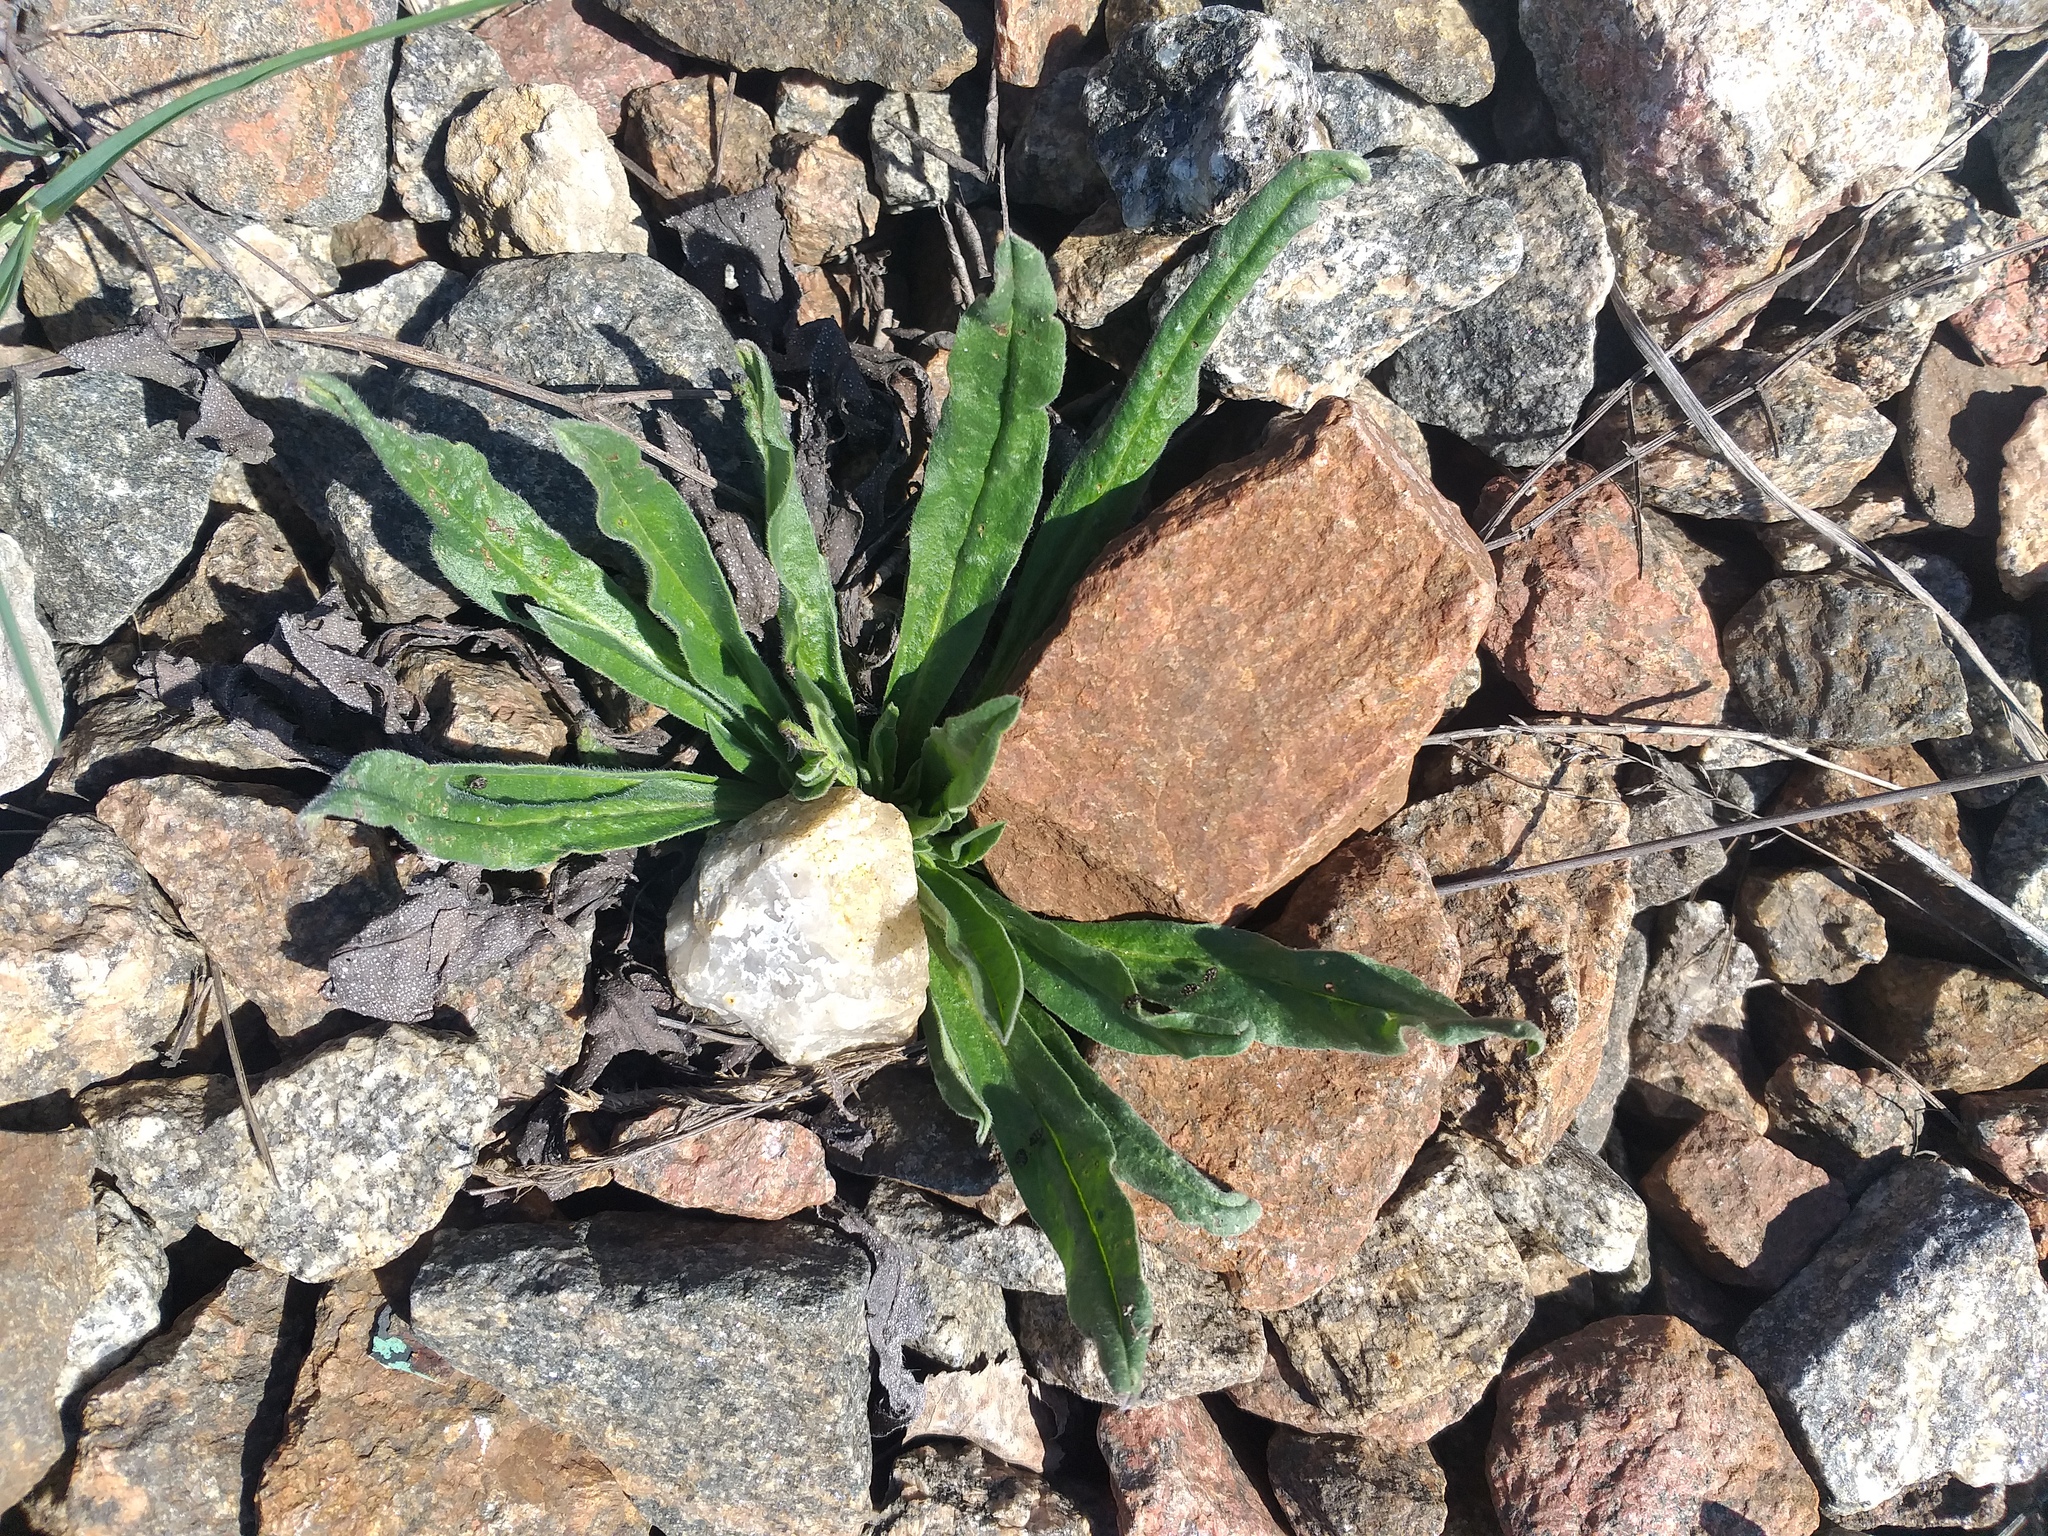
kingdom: Plantae
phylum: Tracheophyta
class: Magnoliopsida
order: Boraginales
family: Boraginaceae
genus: Echium
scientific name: Echium vulgare
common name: Common viper's bugloss
